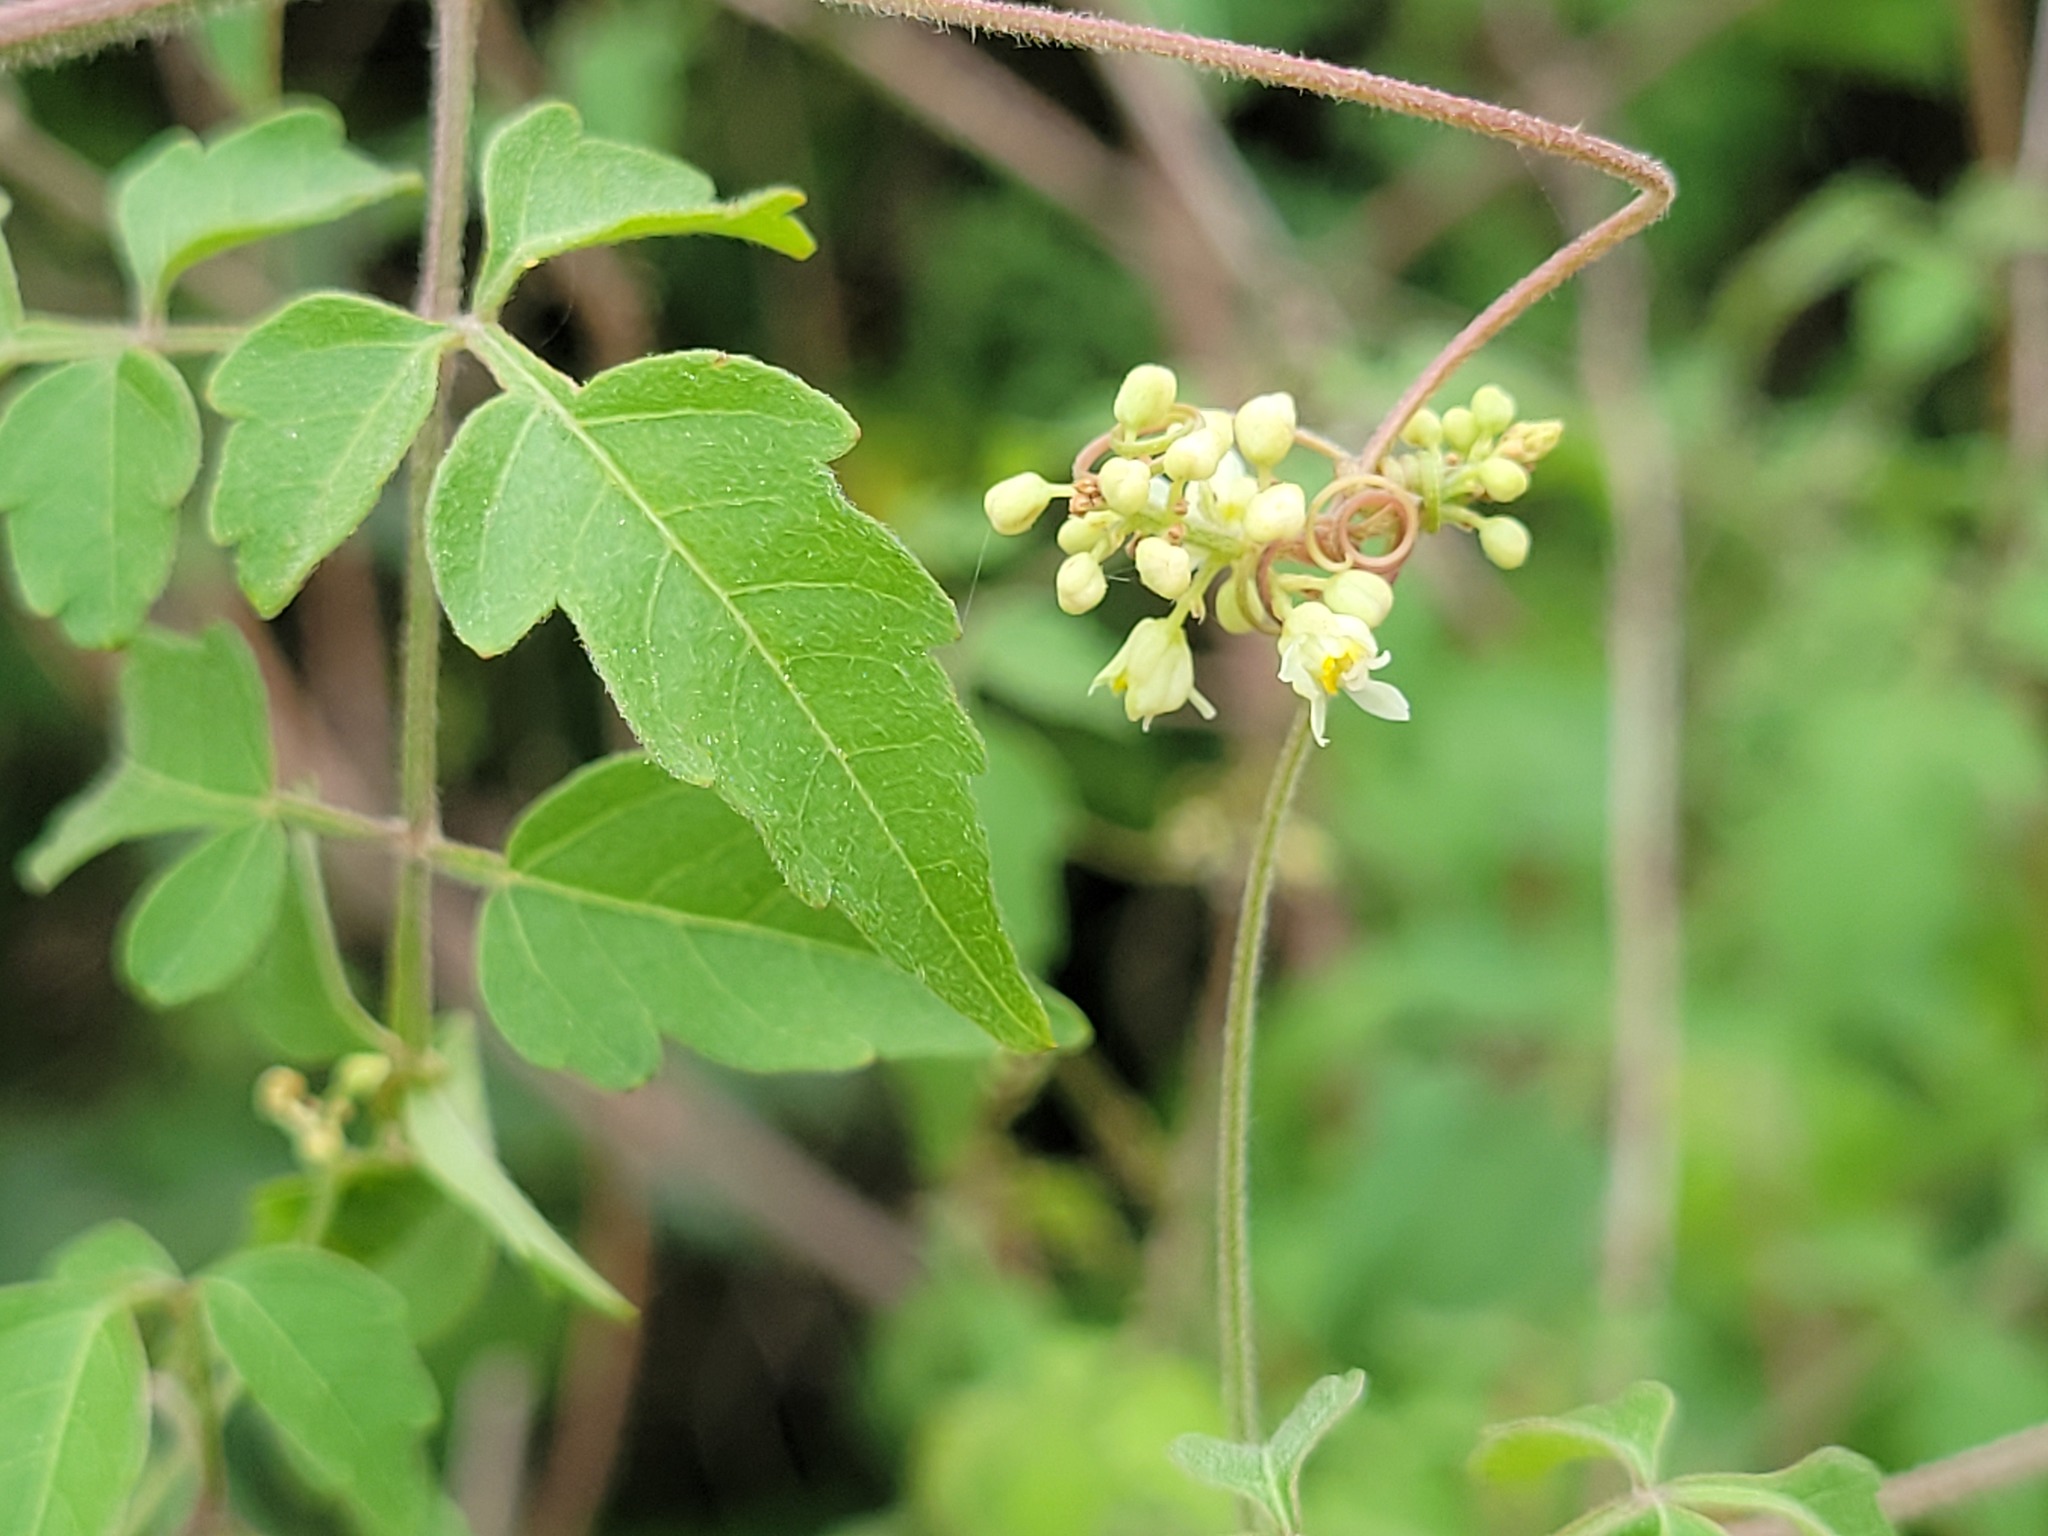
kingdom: Plantae
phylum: Tracheophyta
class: Magnoliopsida
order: Sapindales
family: Sapindaceae
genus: Serjania
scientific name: Serjania brachycarpa
